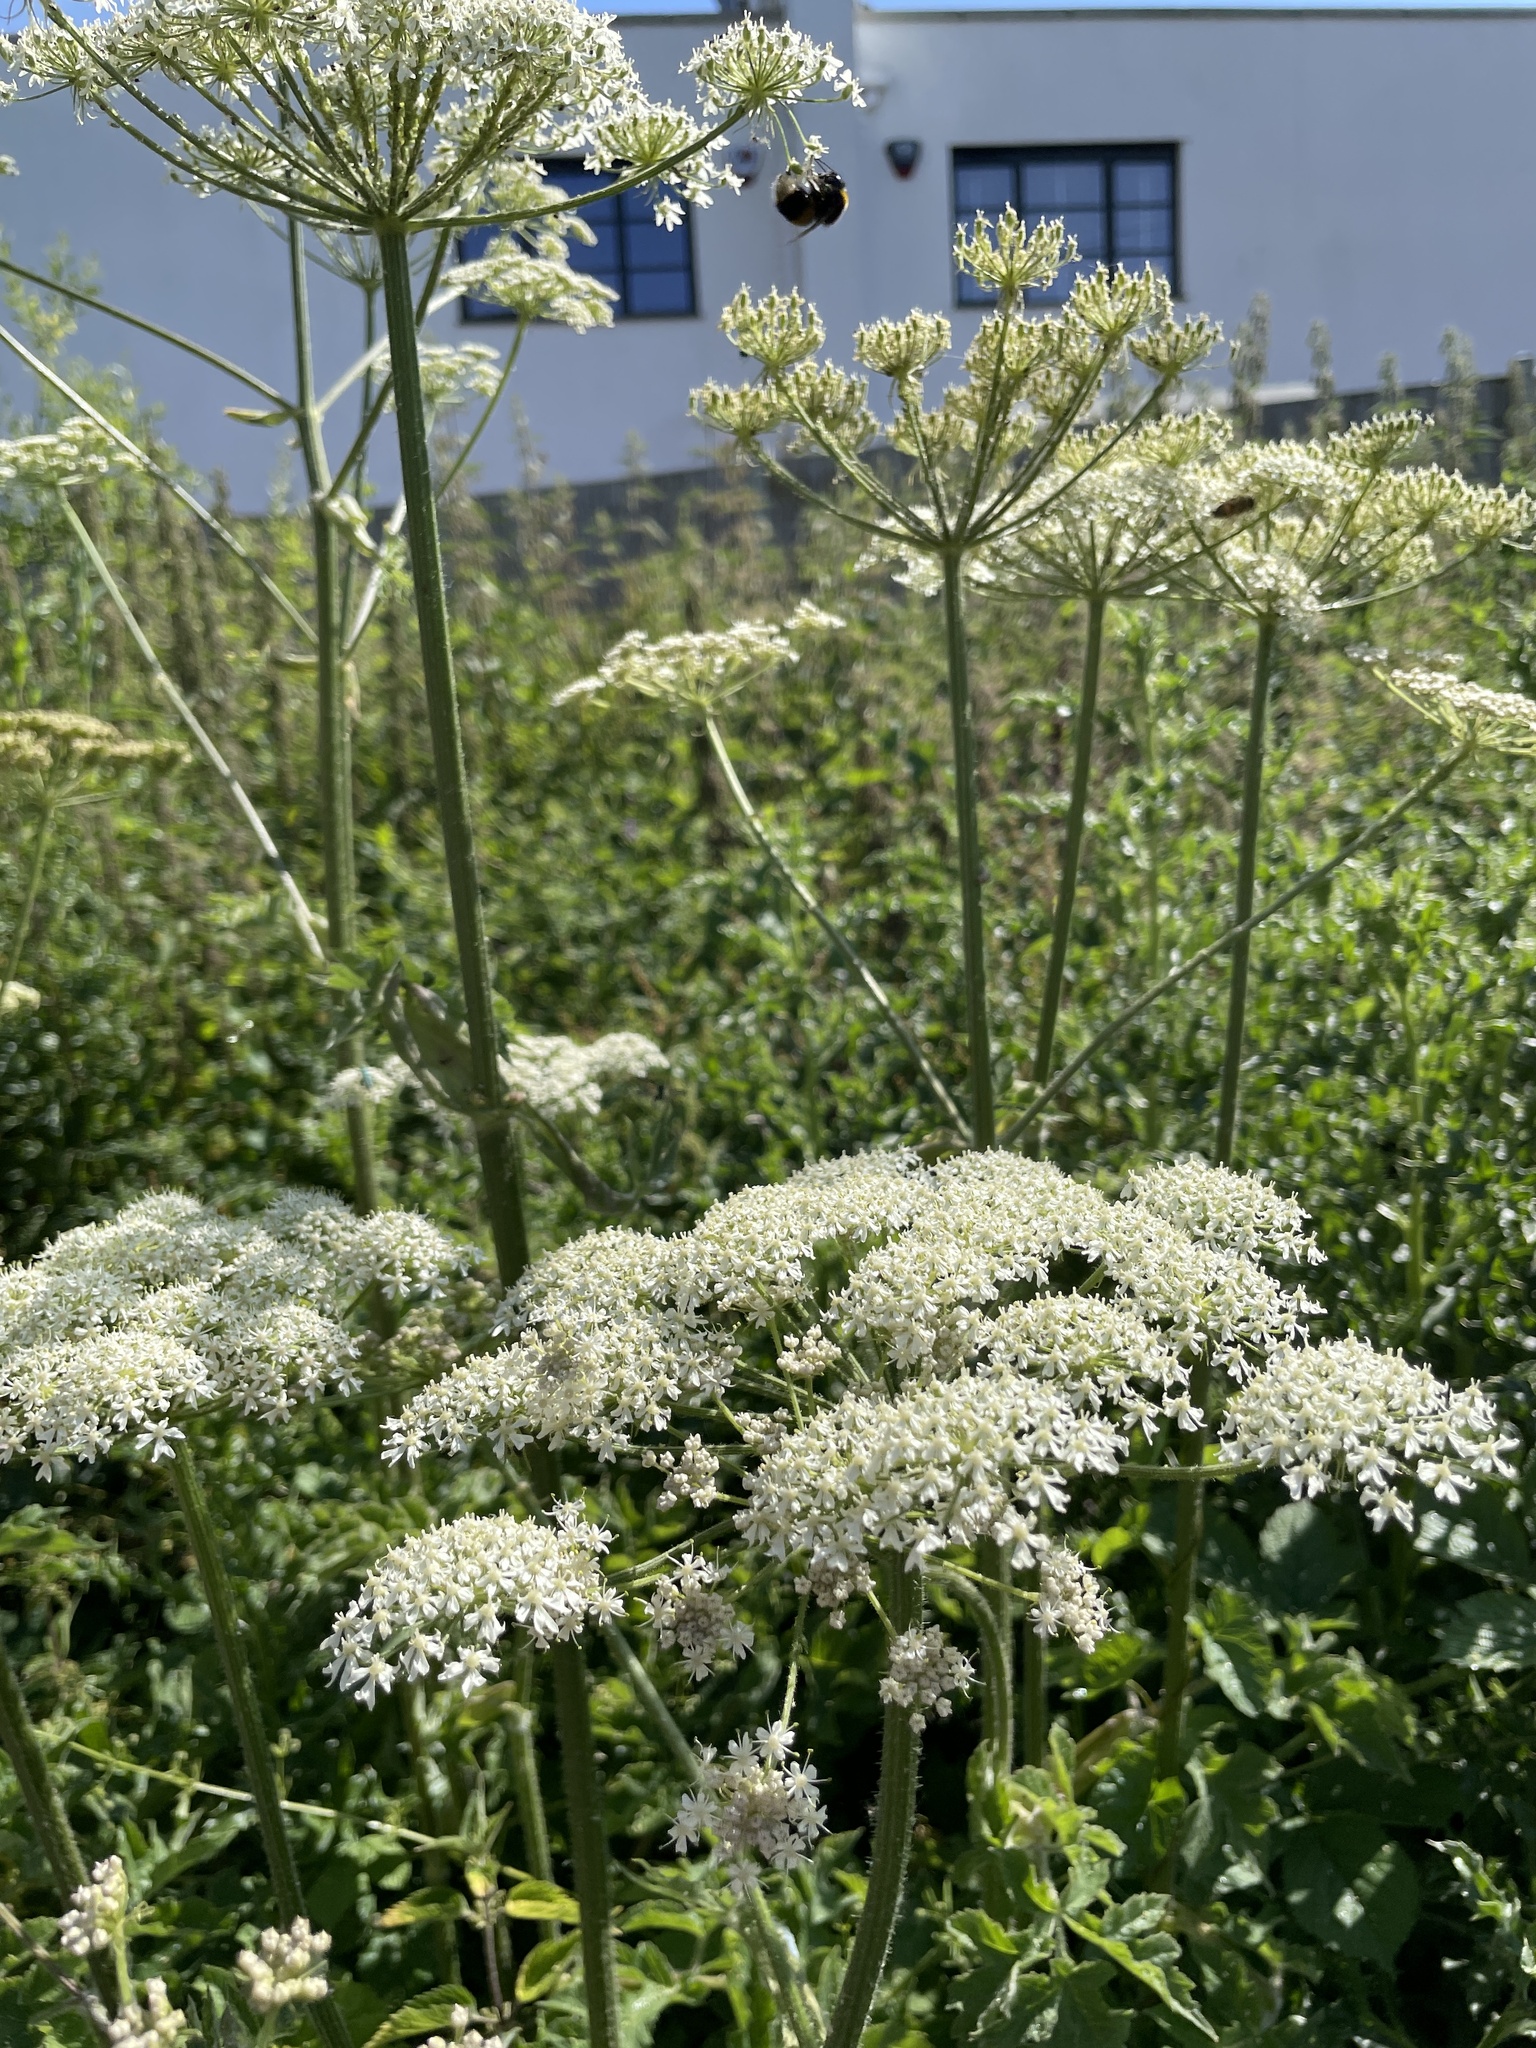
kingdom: Plantae
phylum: Tracheophyta
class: Magnoliopsida
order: Apiales
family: Apiaceae
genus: Heracleum
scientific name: Heracleum sphondylium
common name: Hogweed
